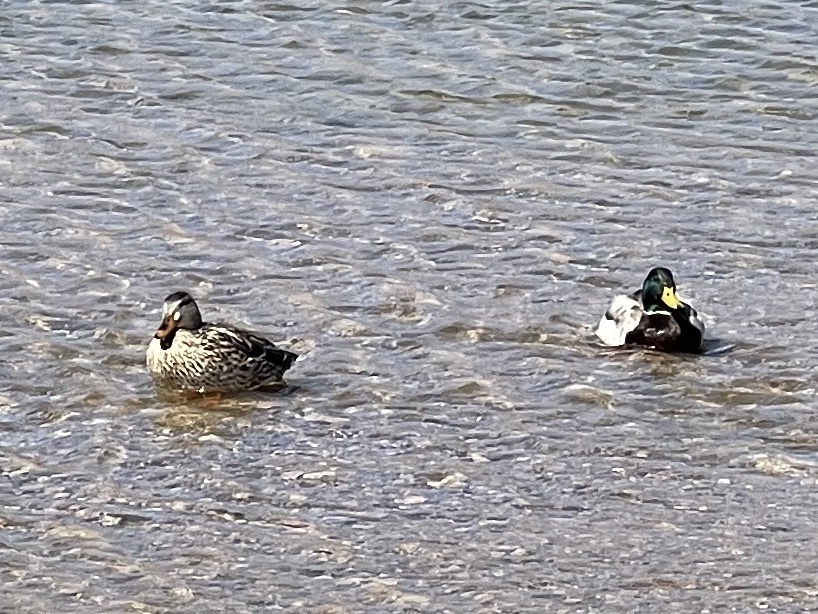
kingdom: Animalia
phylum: Chordata
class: Aves
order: Anseriformes
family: Anatidae
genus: Anas
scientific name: Anas platyrhynchos
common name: Mallard
